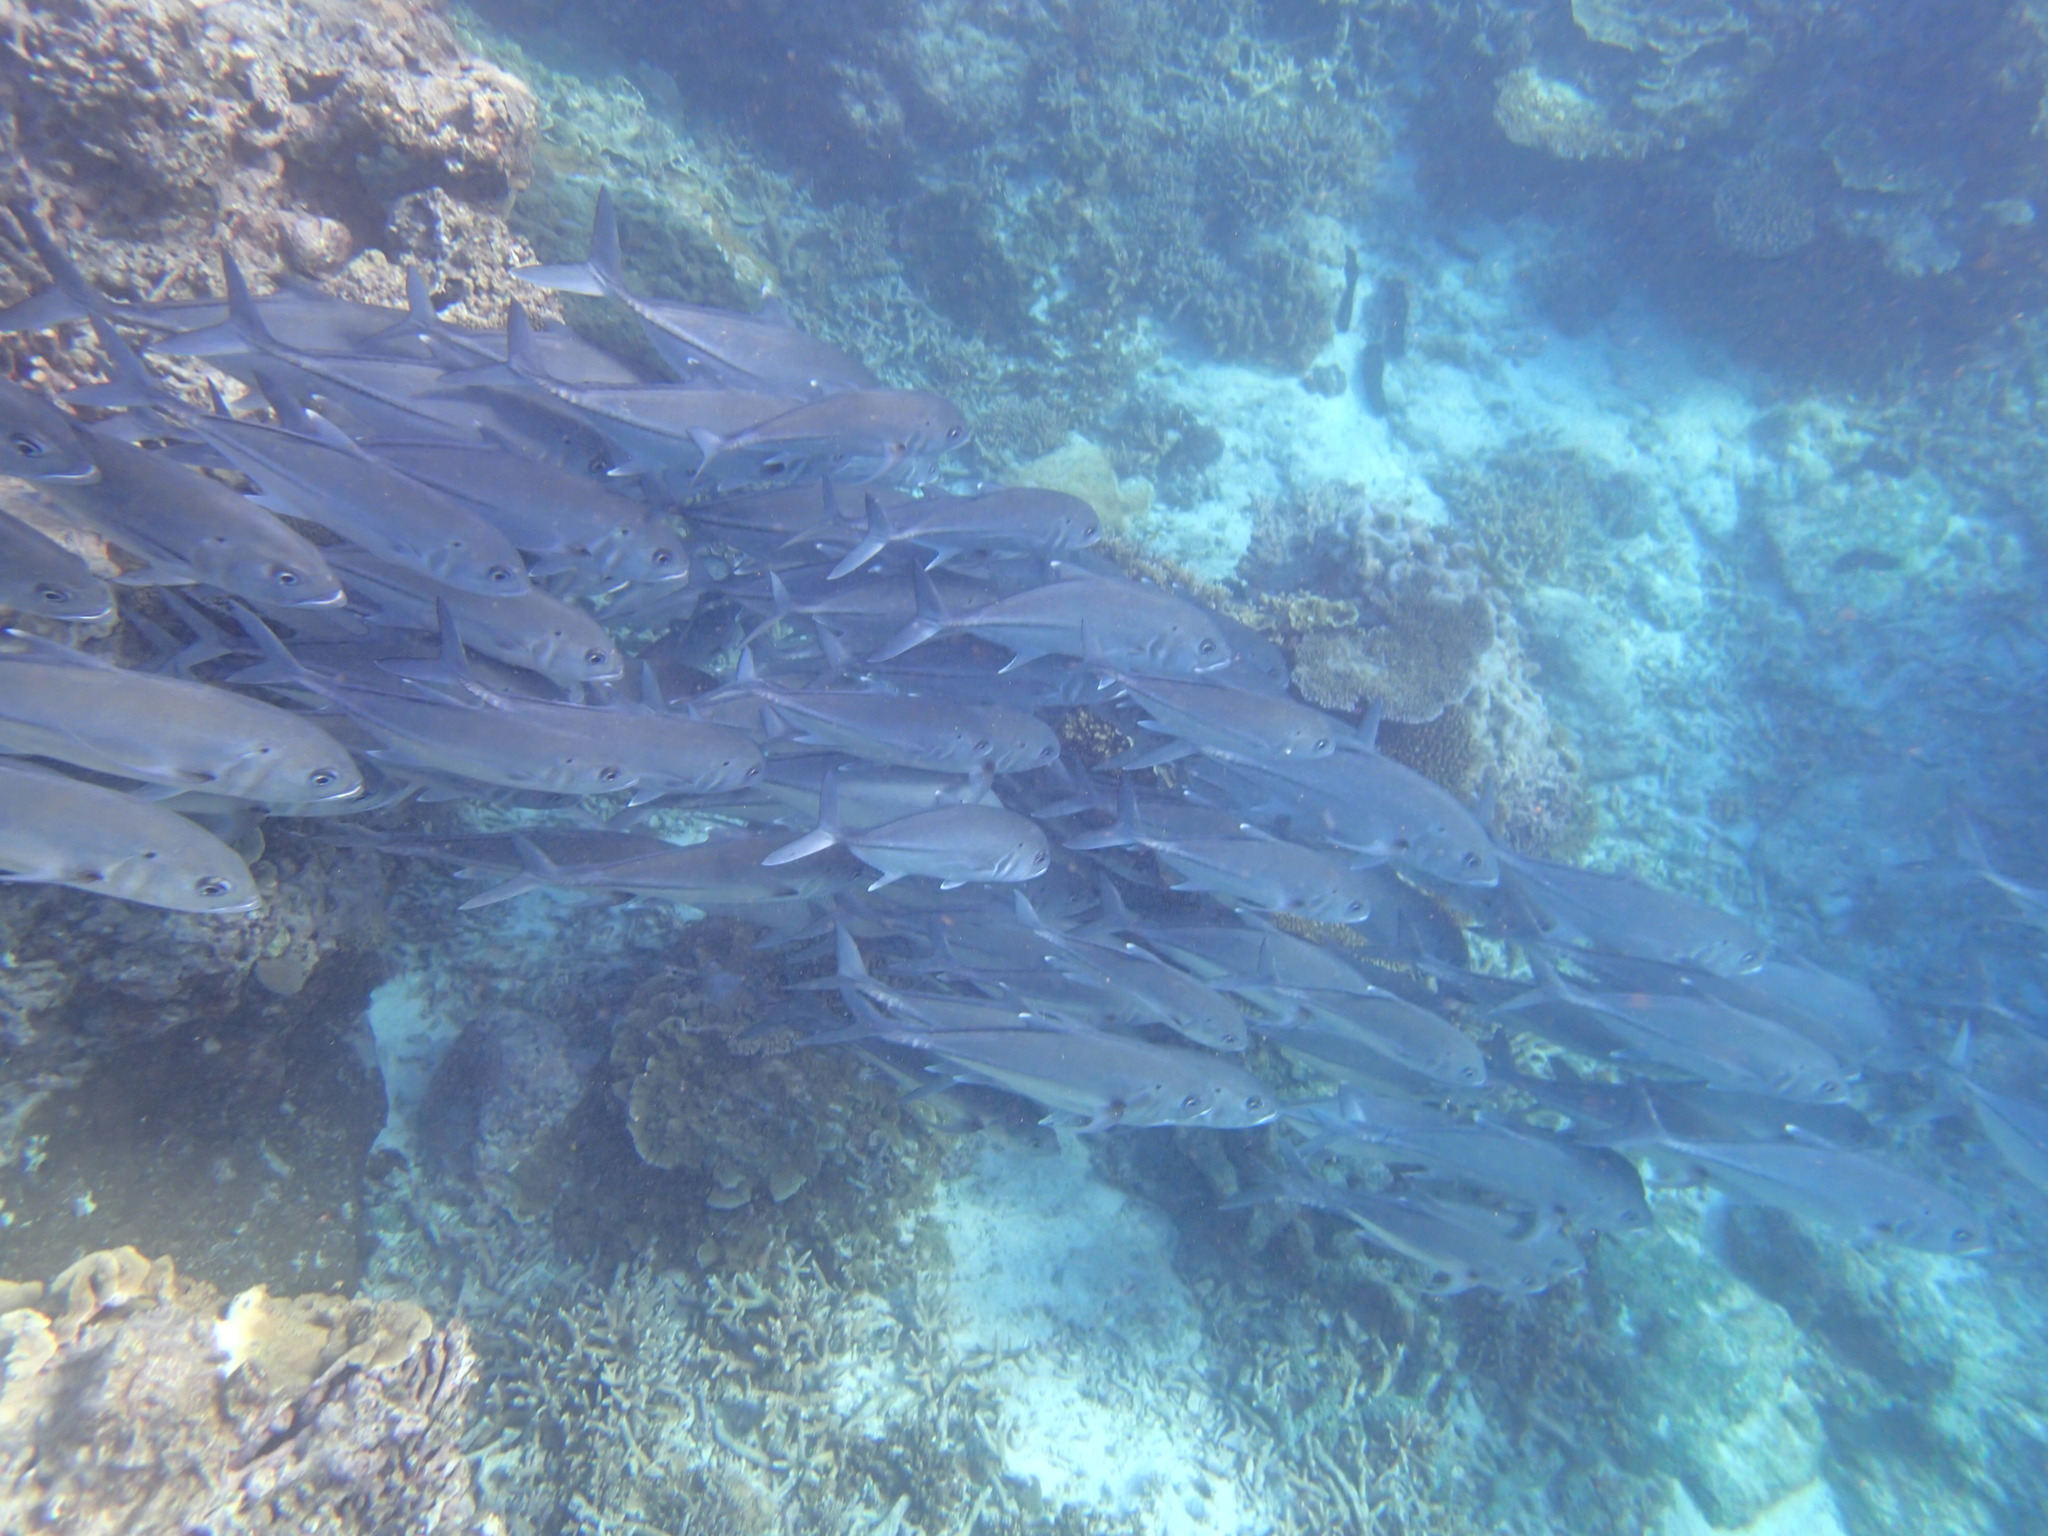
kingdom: Animalia
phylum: Chordata
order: Perciformes
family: Carangidae
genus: Caranx
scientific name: Caranx sexfasciatus
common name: Bigeye trevally
